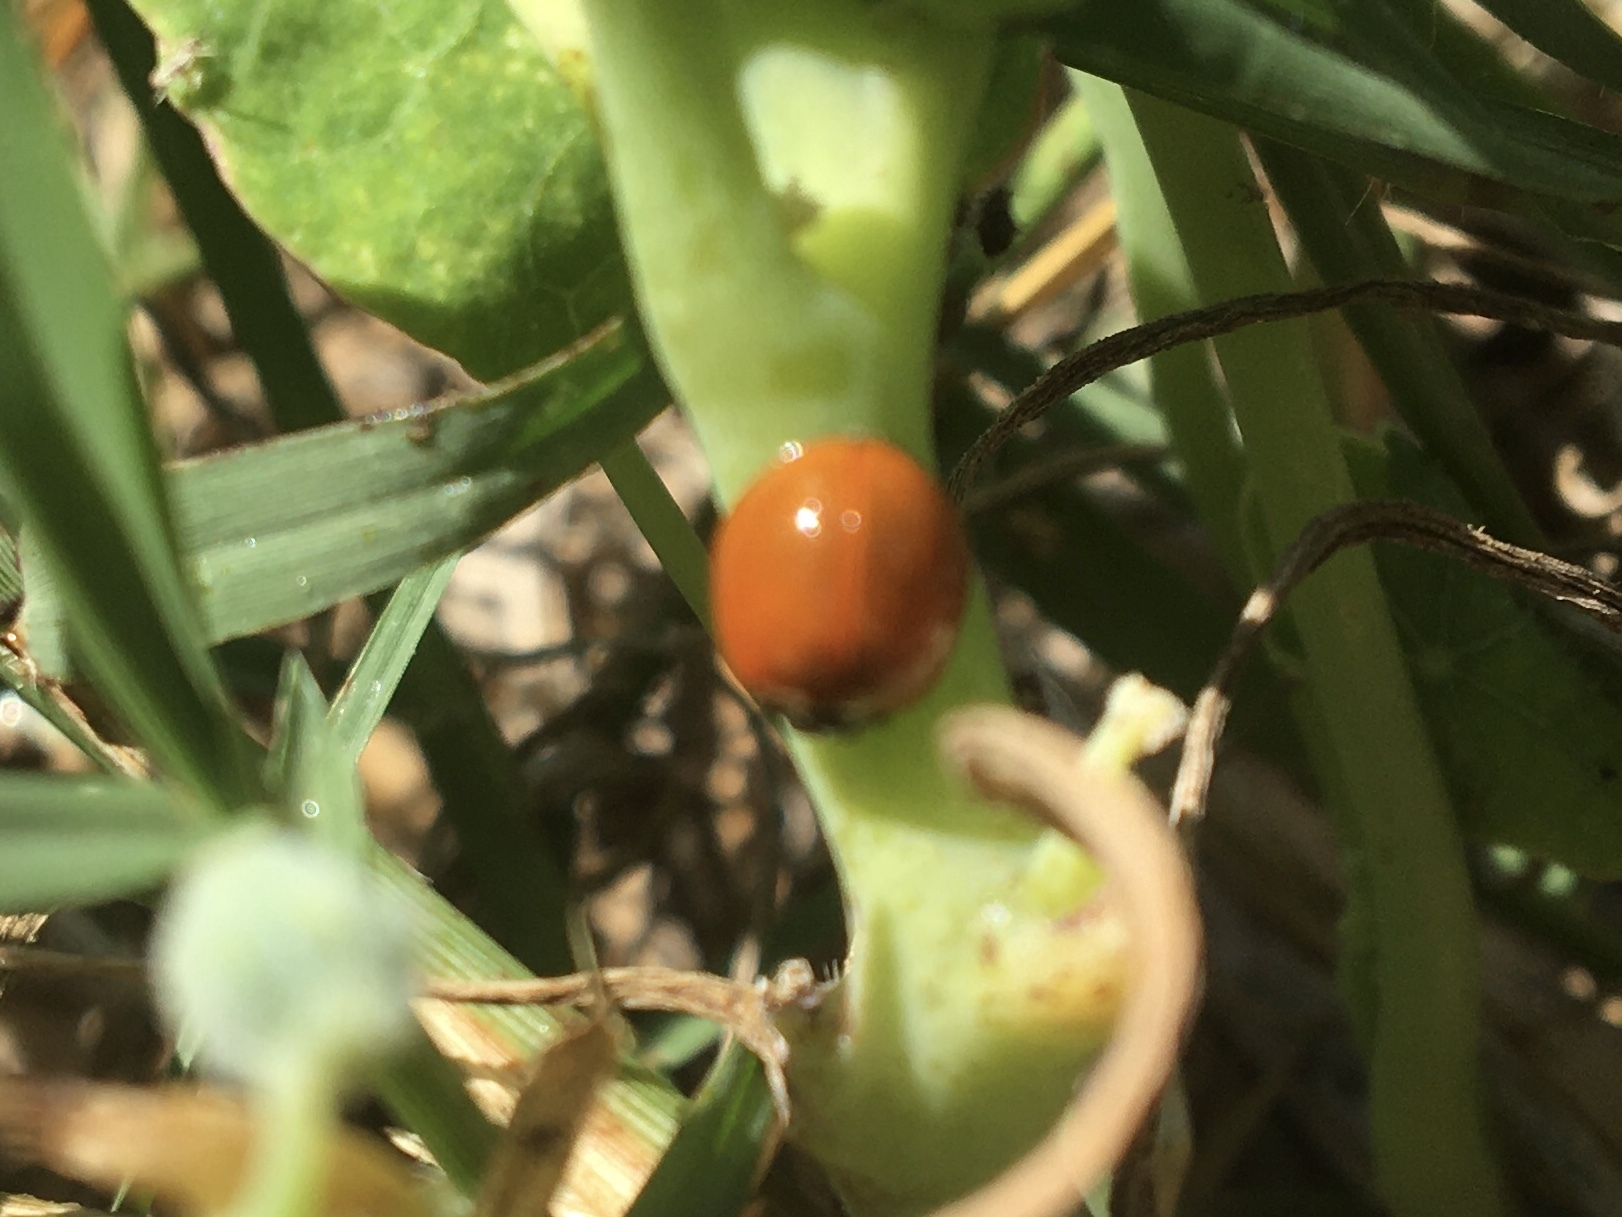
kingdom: Animalia
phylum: Arthropoda
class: Insecta
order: Coleoptera
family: Coccinellidae
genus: Cycloneda
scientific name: Cycloneda
